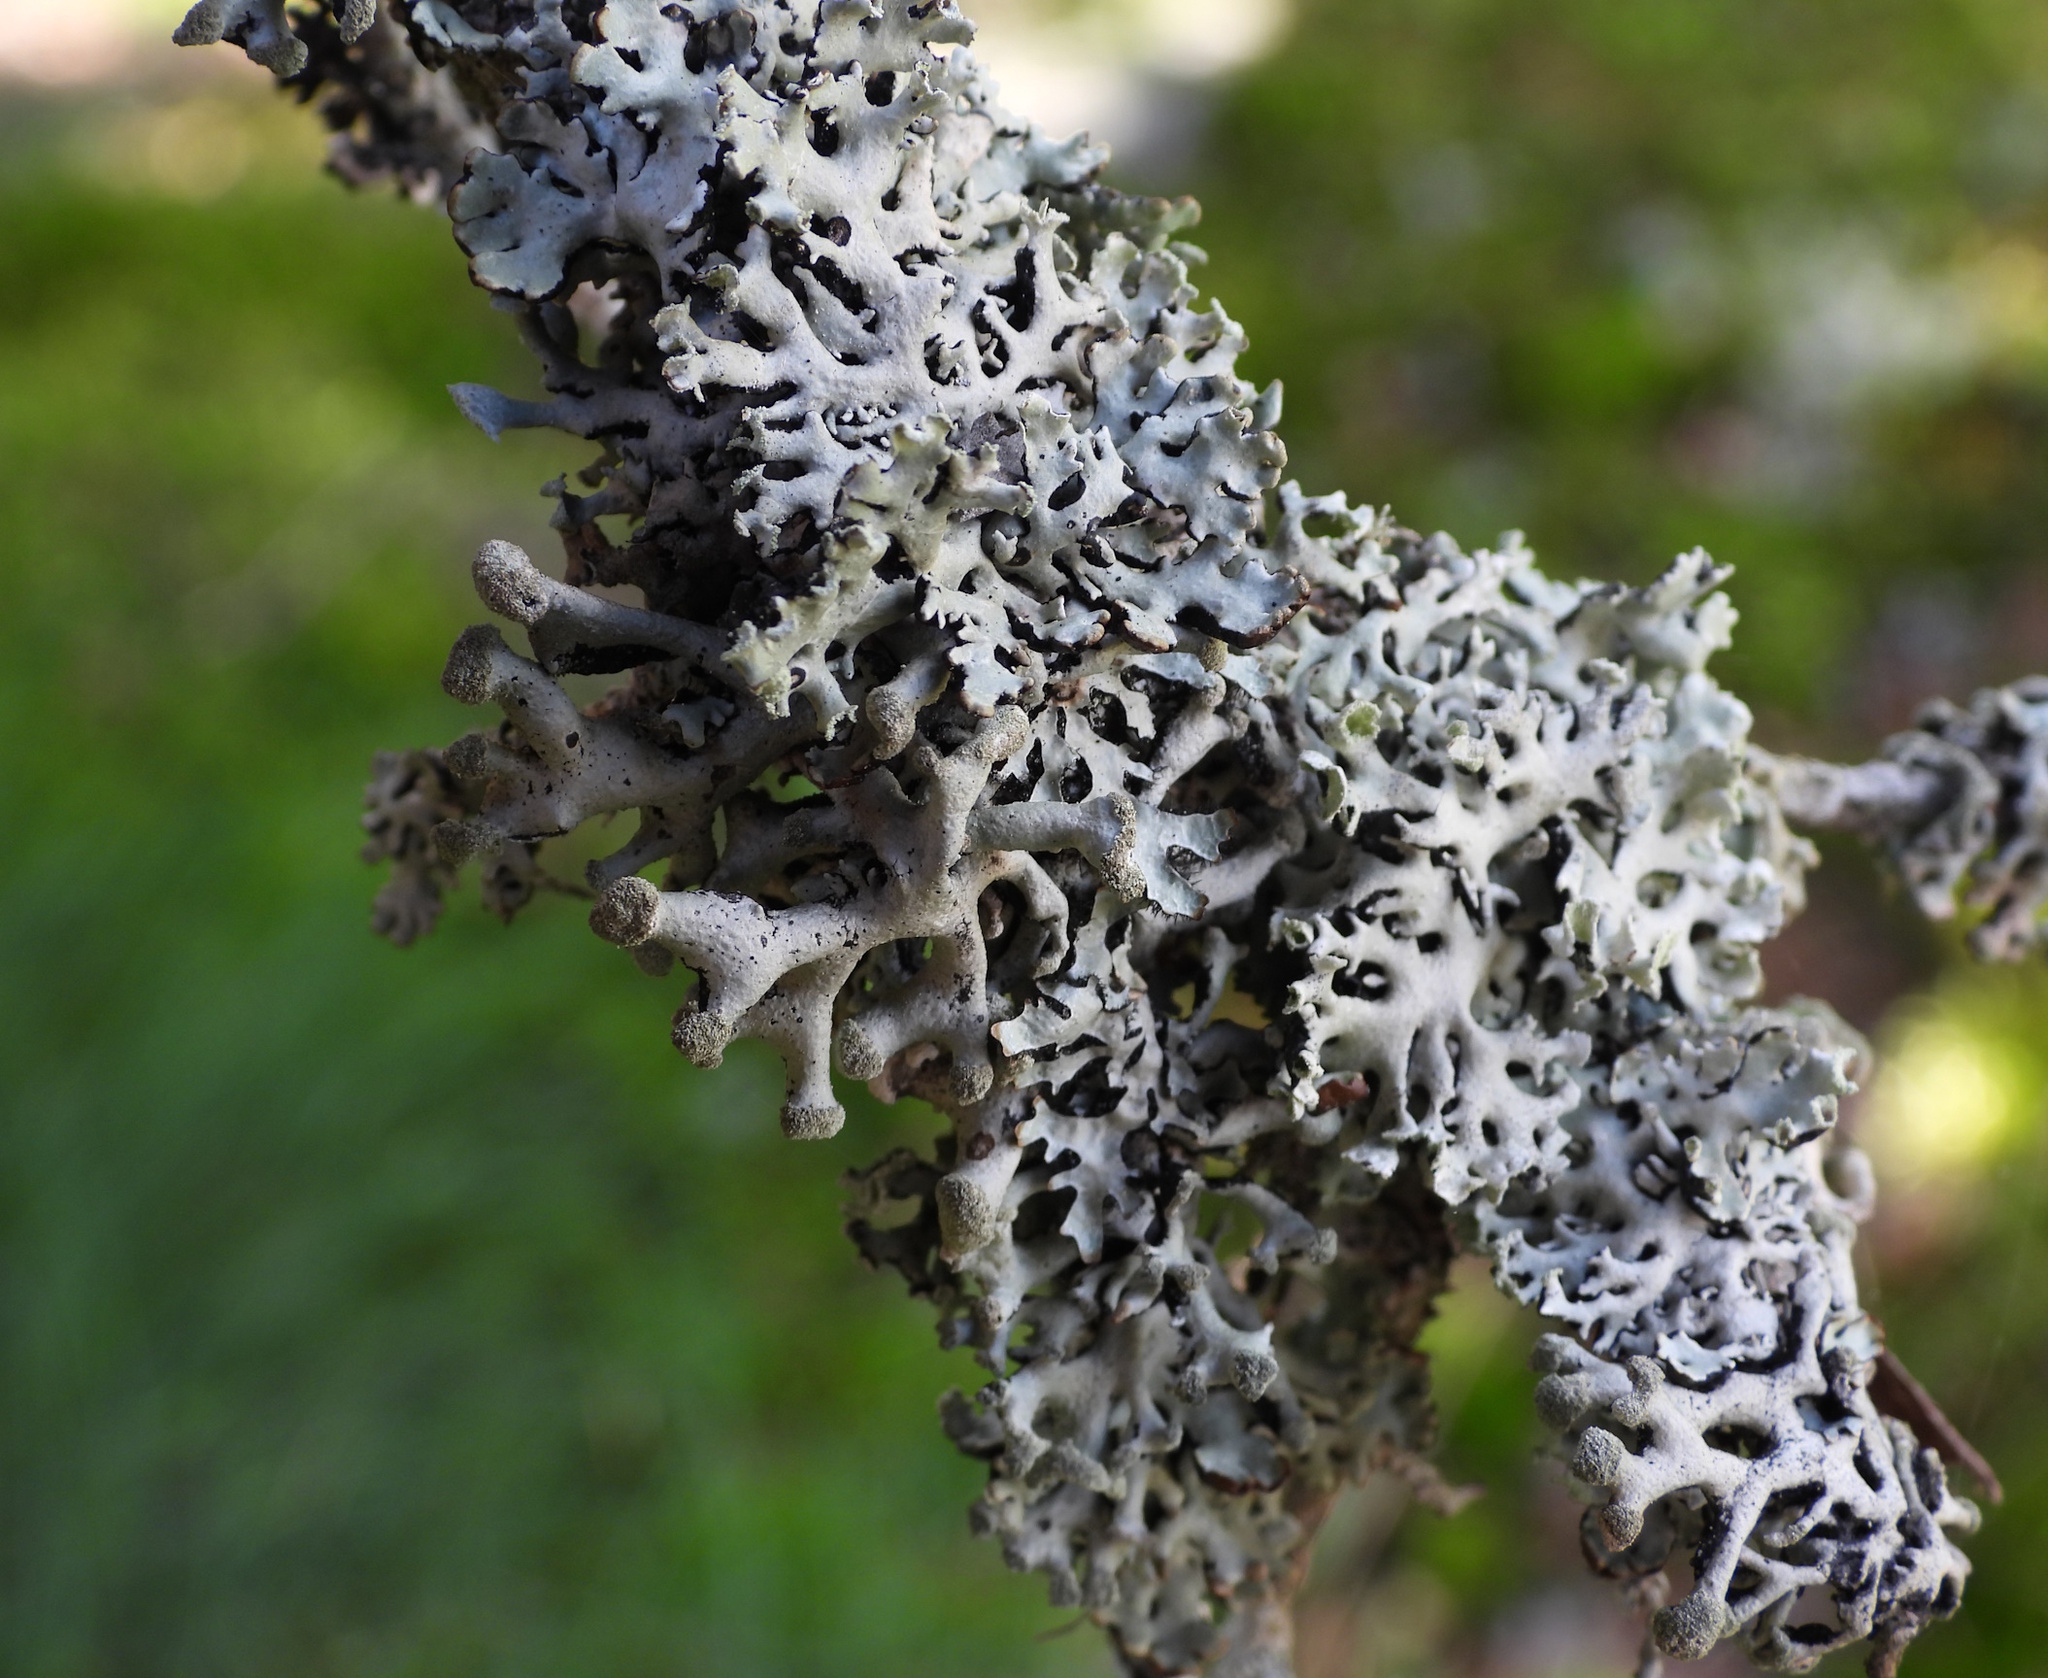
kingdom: Fungi
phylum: Ascomycota
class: Lecanoromycetes
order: Lecanorales
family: Parmeliaceae
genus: Hypogymnia
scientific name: Hypogymnia tubulosa
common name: Powder-headed tube lichen
